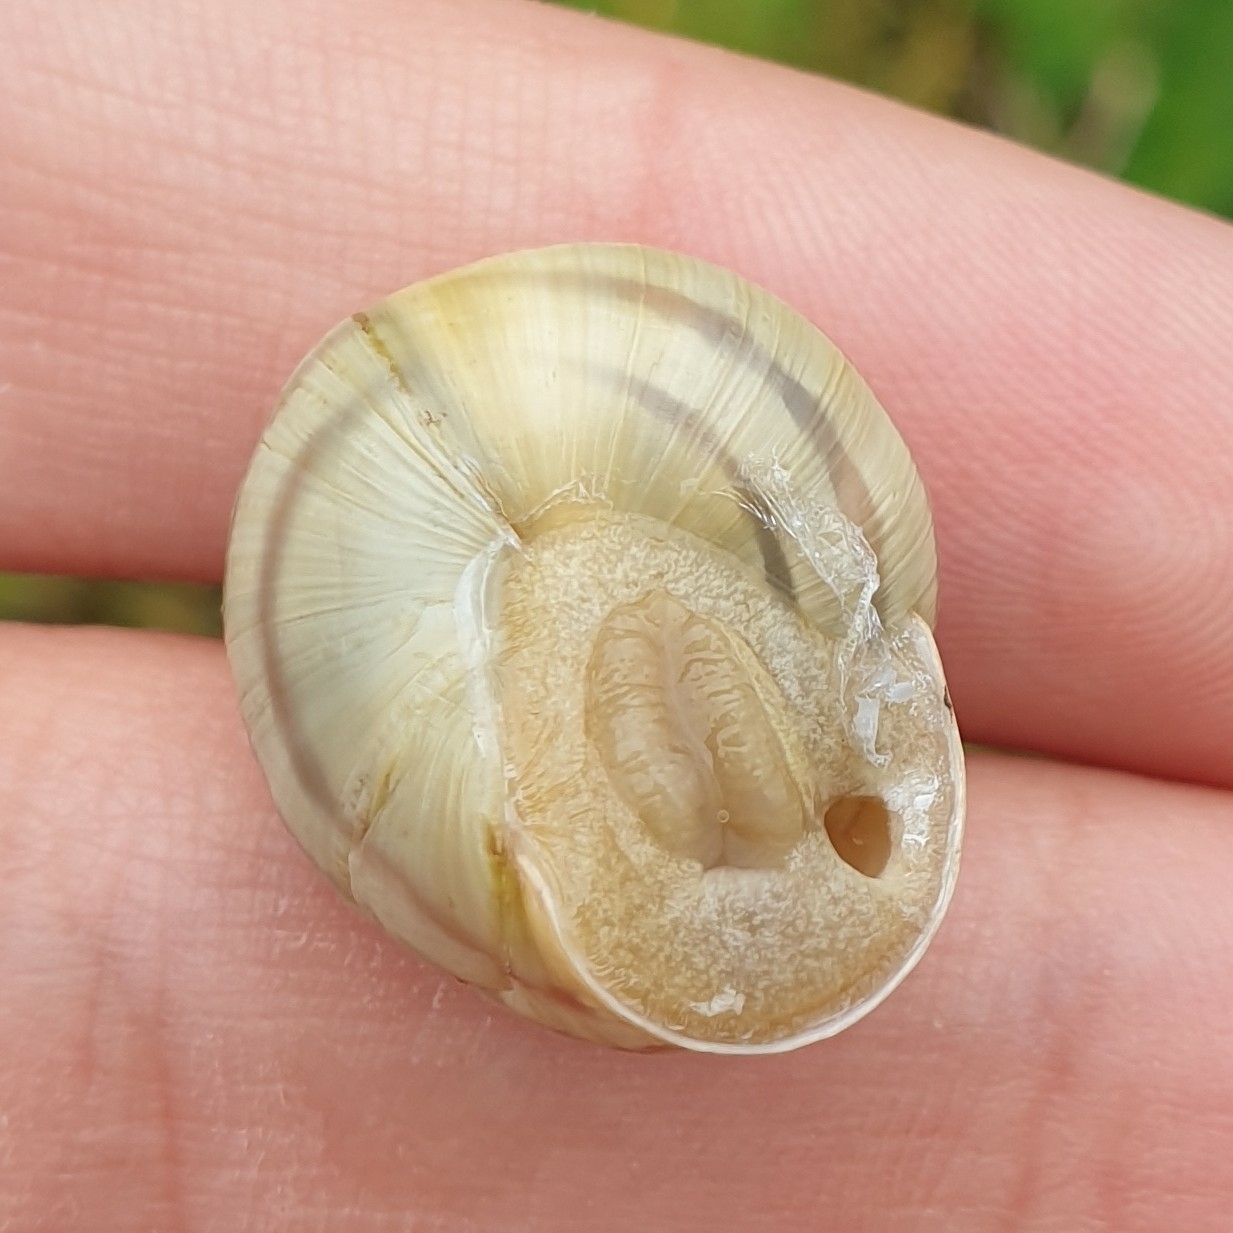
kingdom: Animalia
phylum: Mollusca
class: Gastropoda
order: Stylommatophora
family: Helicidae
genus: Cepaea
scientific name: Cepaea hortensis
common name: White-lip gardensnail
